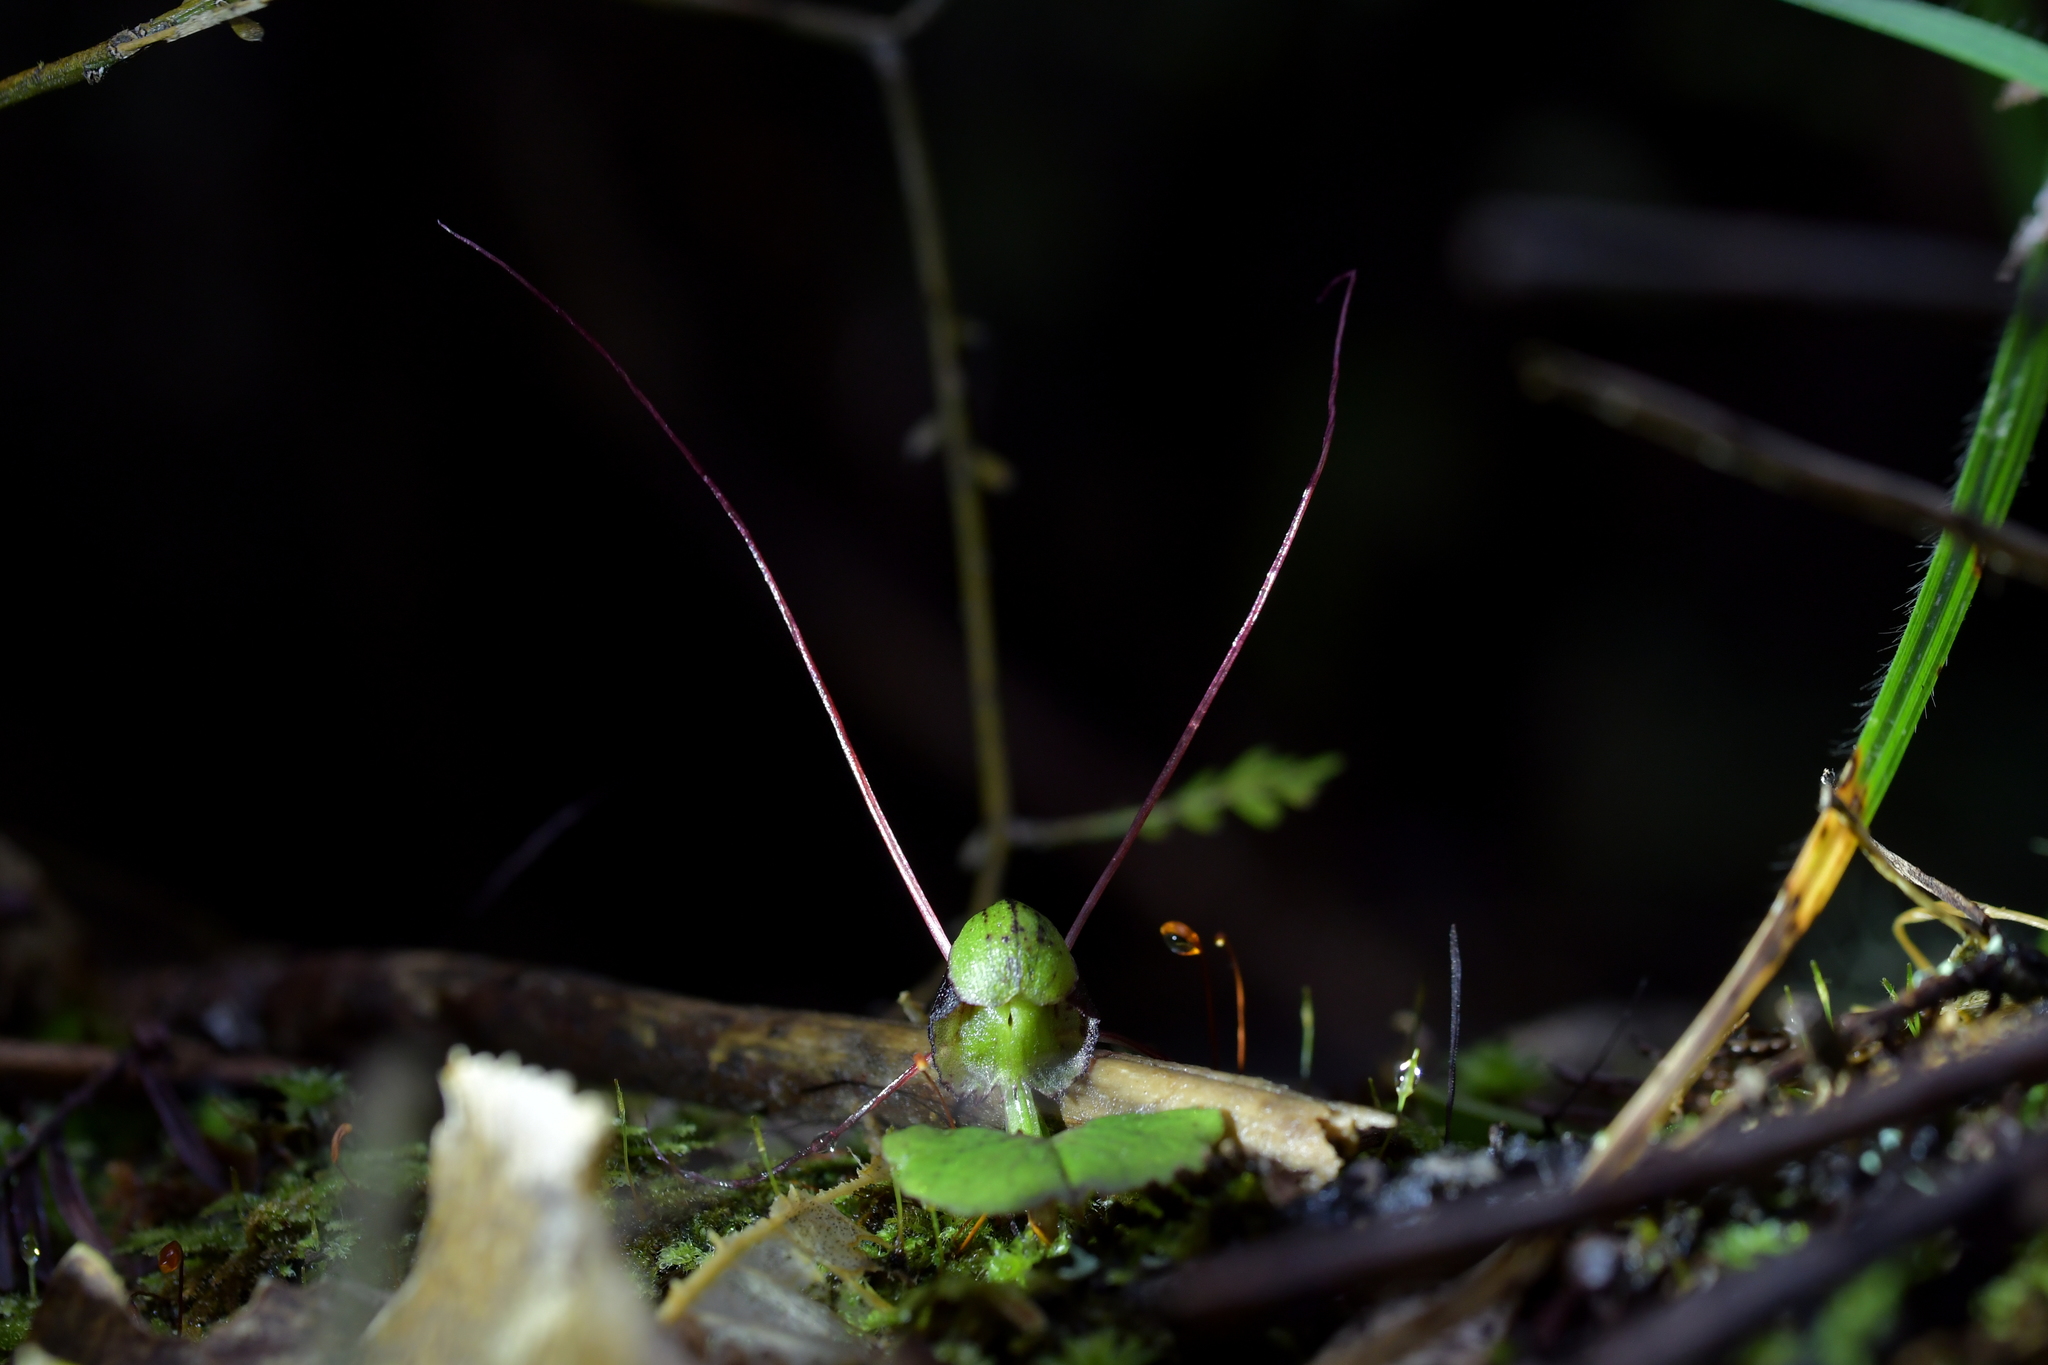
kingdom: Plantae
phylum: Tracheophyta
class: Liliopsida
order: Asparagales
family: Orchidaceae
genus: Corybas
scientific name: Corybas vitreus
